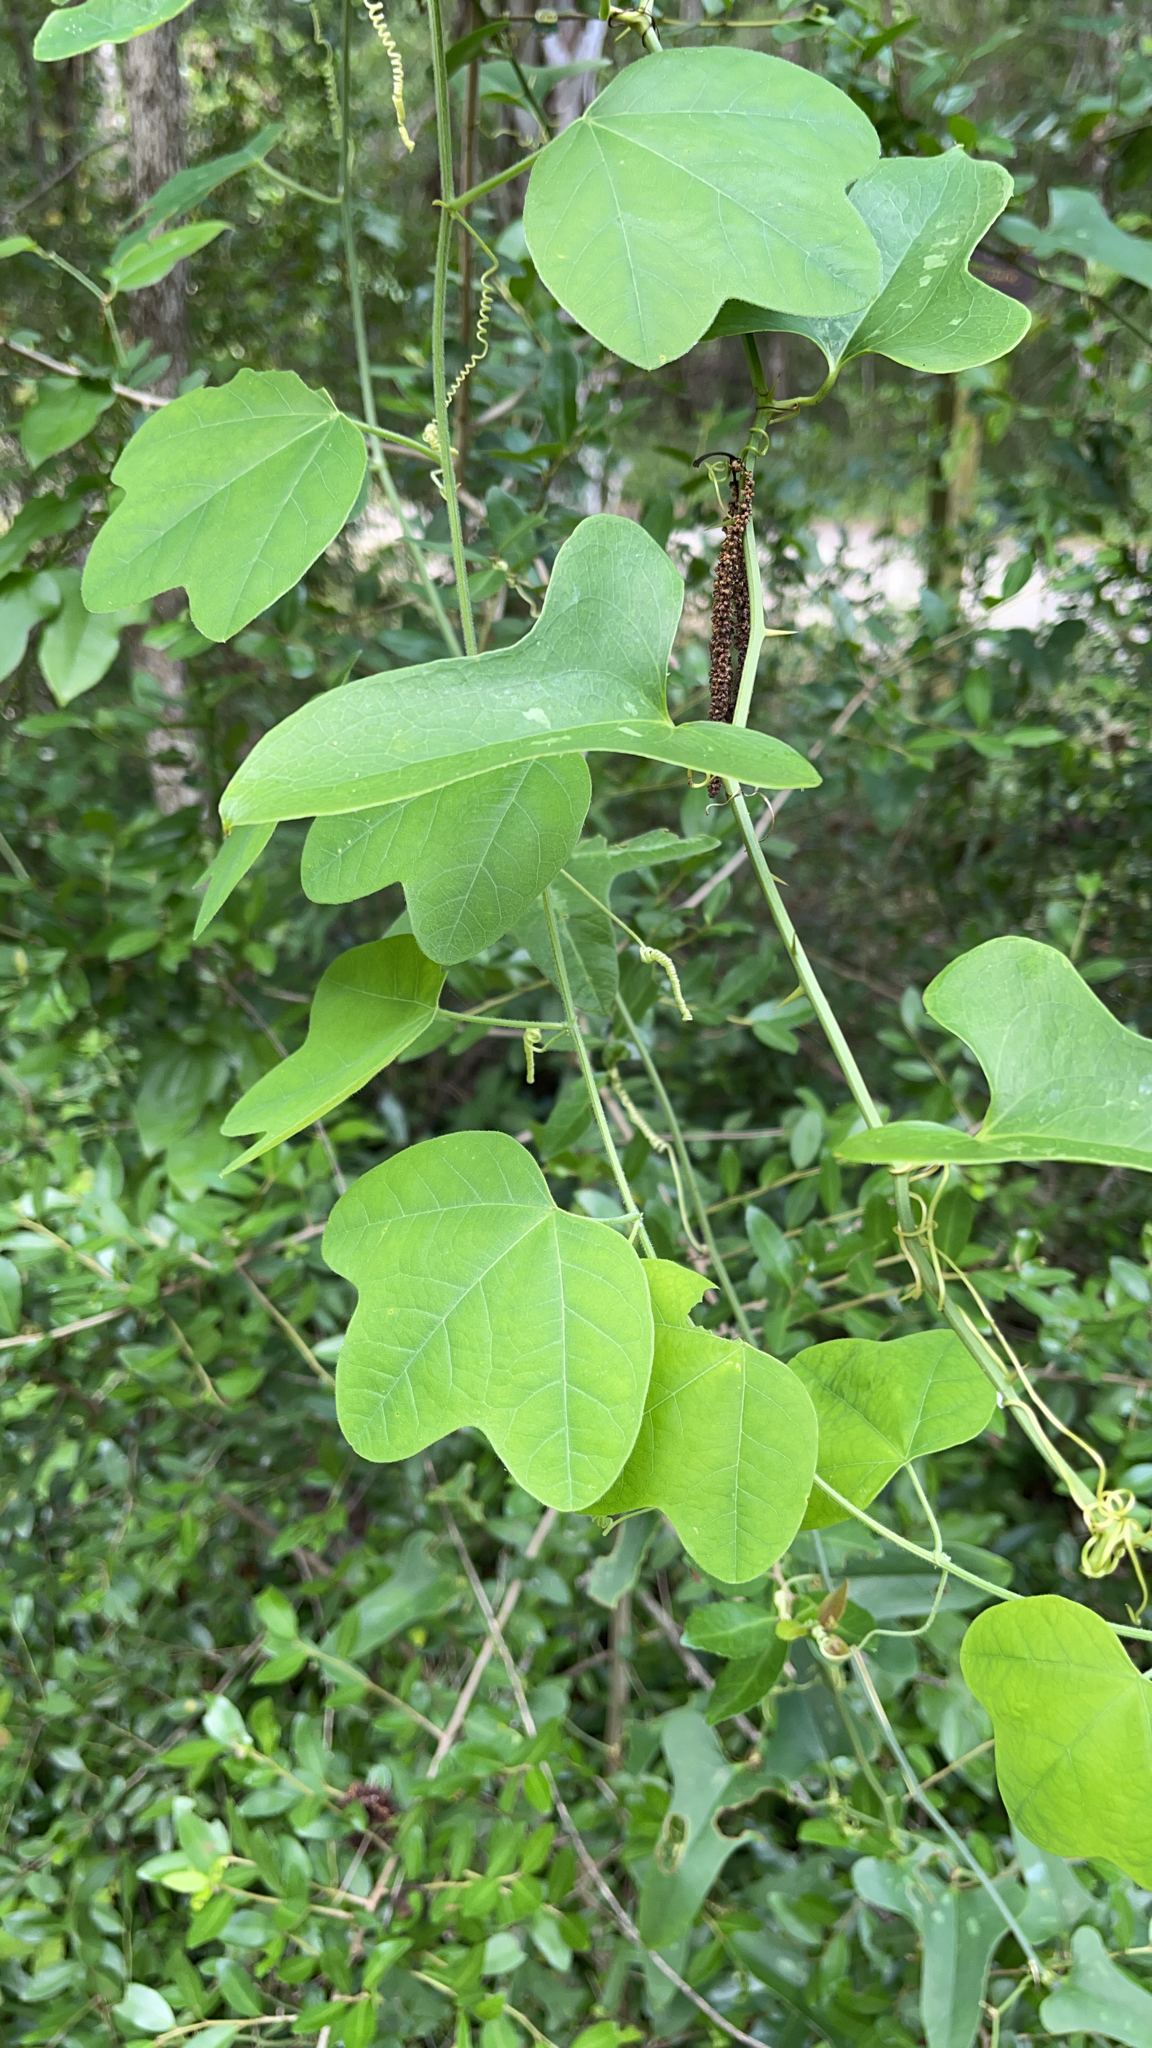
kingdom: Plantae
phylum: Tracheophyta
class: Magnoliopsida
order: Malpighiales
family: Passifloraceae
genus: Passiflora
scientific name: Passiflora lutea
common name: Yellow passionflower
